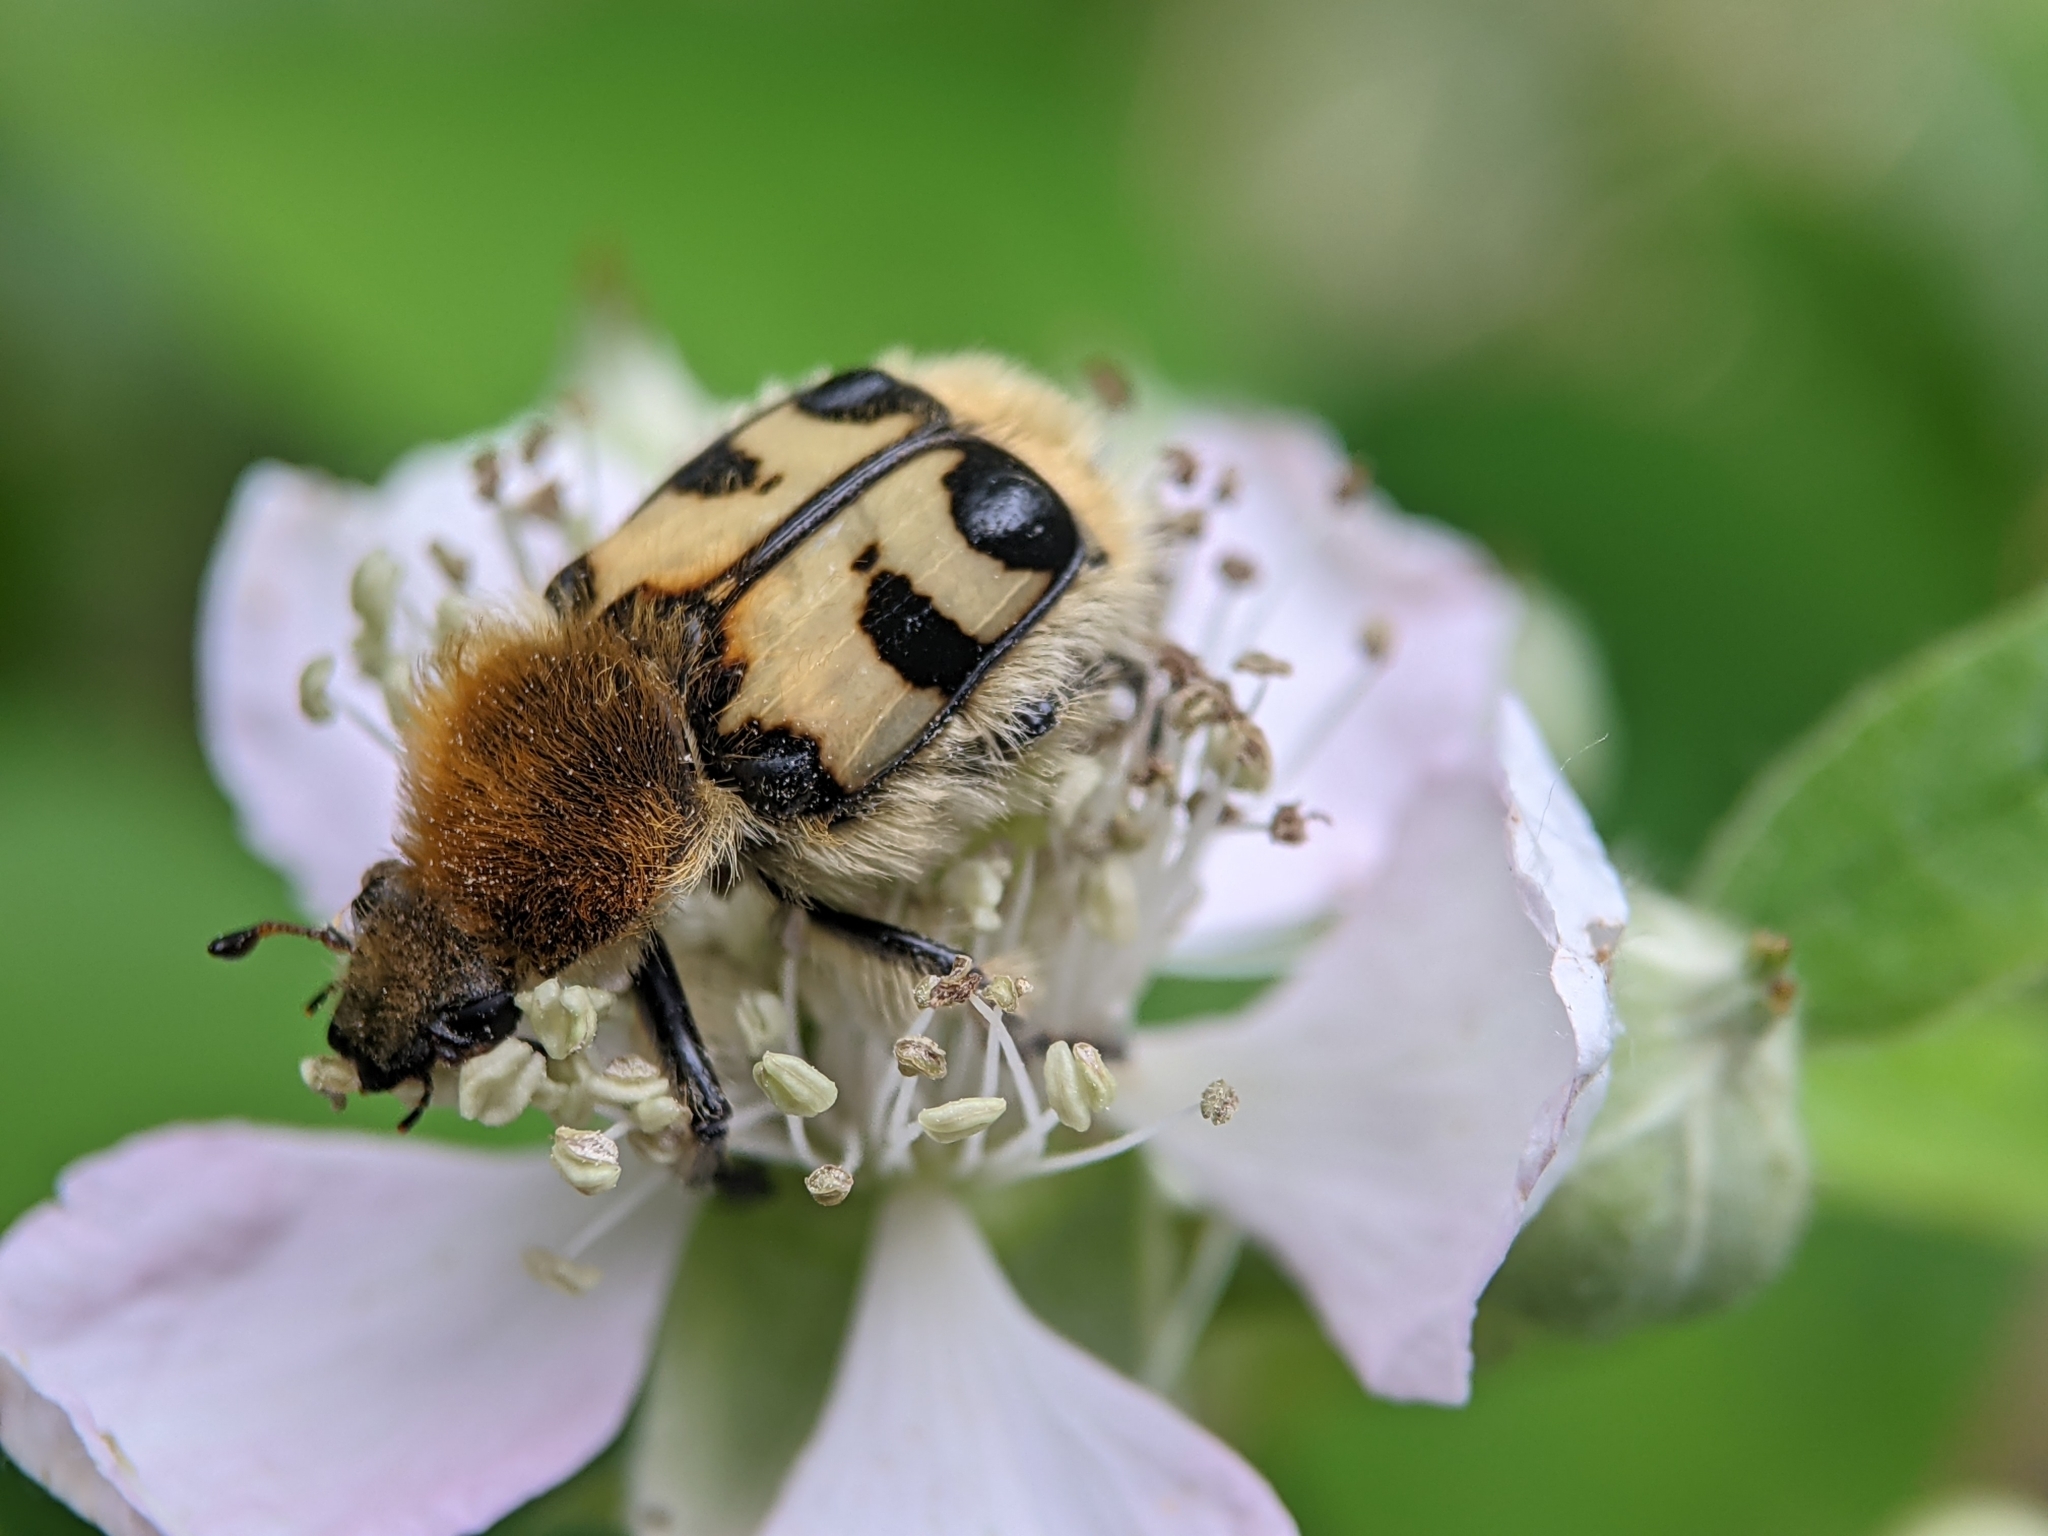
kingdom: Animalia
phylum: Arthropoda
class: Insecta
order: Coleoptera
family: Scarabaeidae
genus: Trichius
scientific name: Trichius fasciatus
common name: Bee beetle
